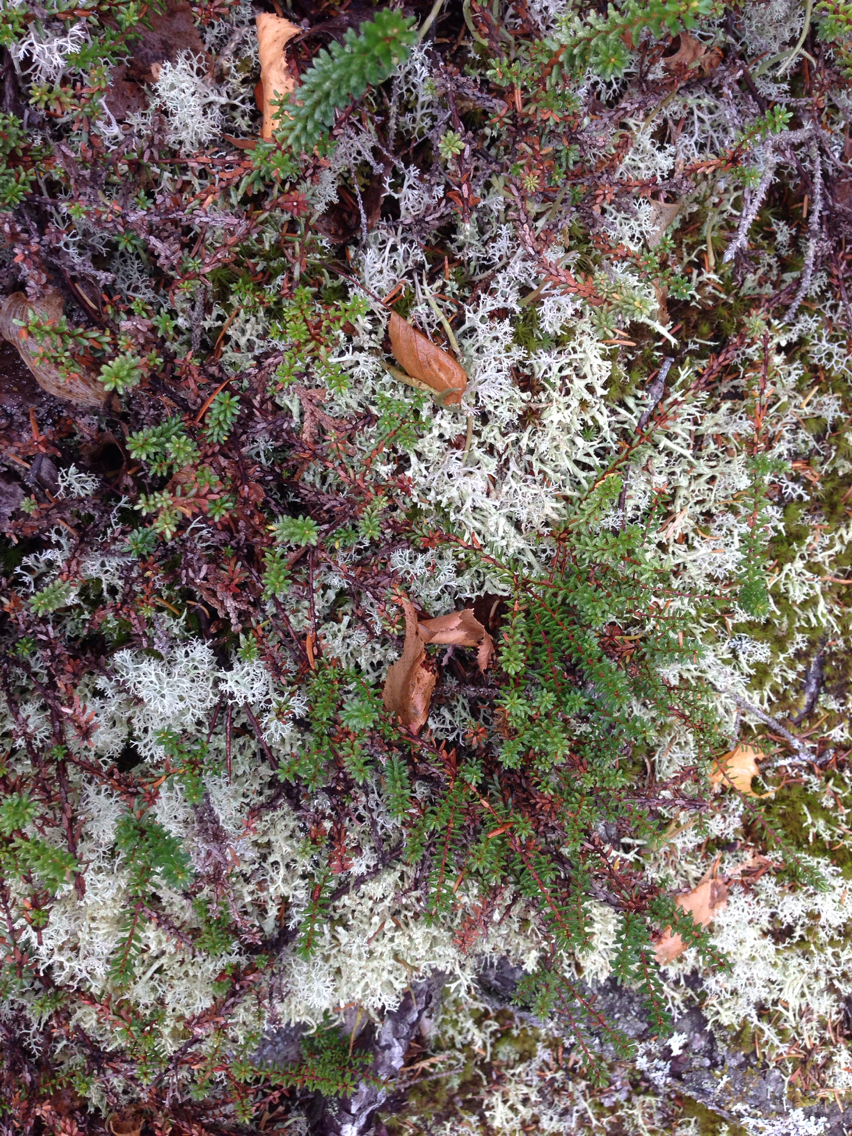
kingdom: Plantae
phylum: Tracheophyta
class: Magnoliopsida
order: Ericales
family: Ericaceae
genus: Empetrum
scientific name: Empetrum nigrum
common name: Black crowberry
